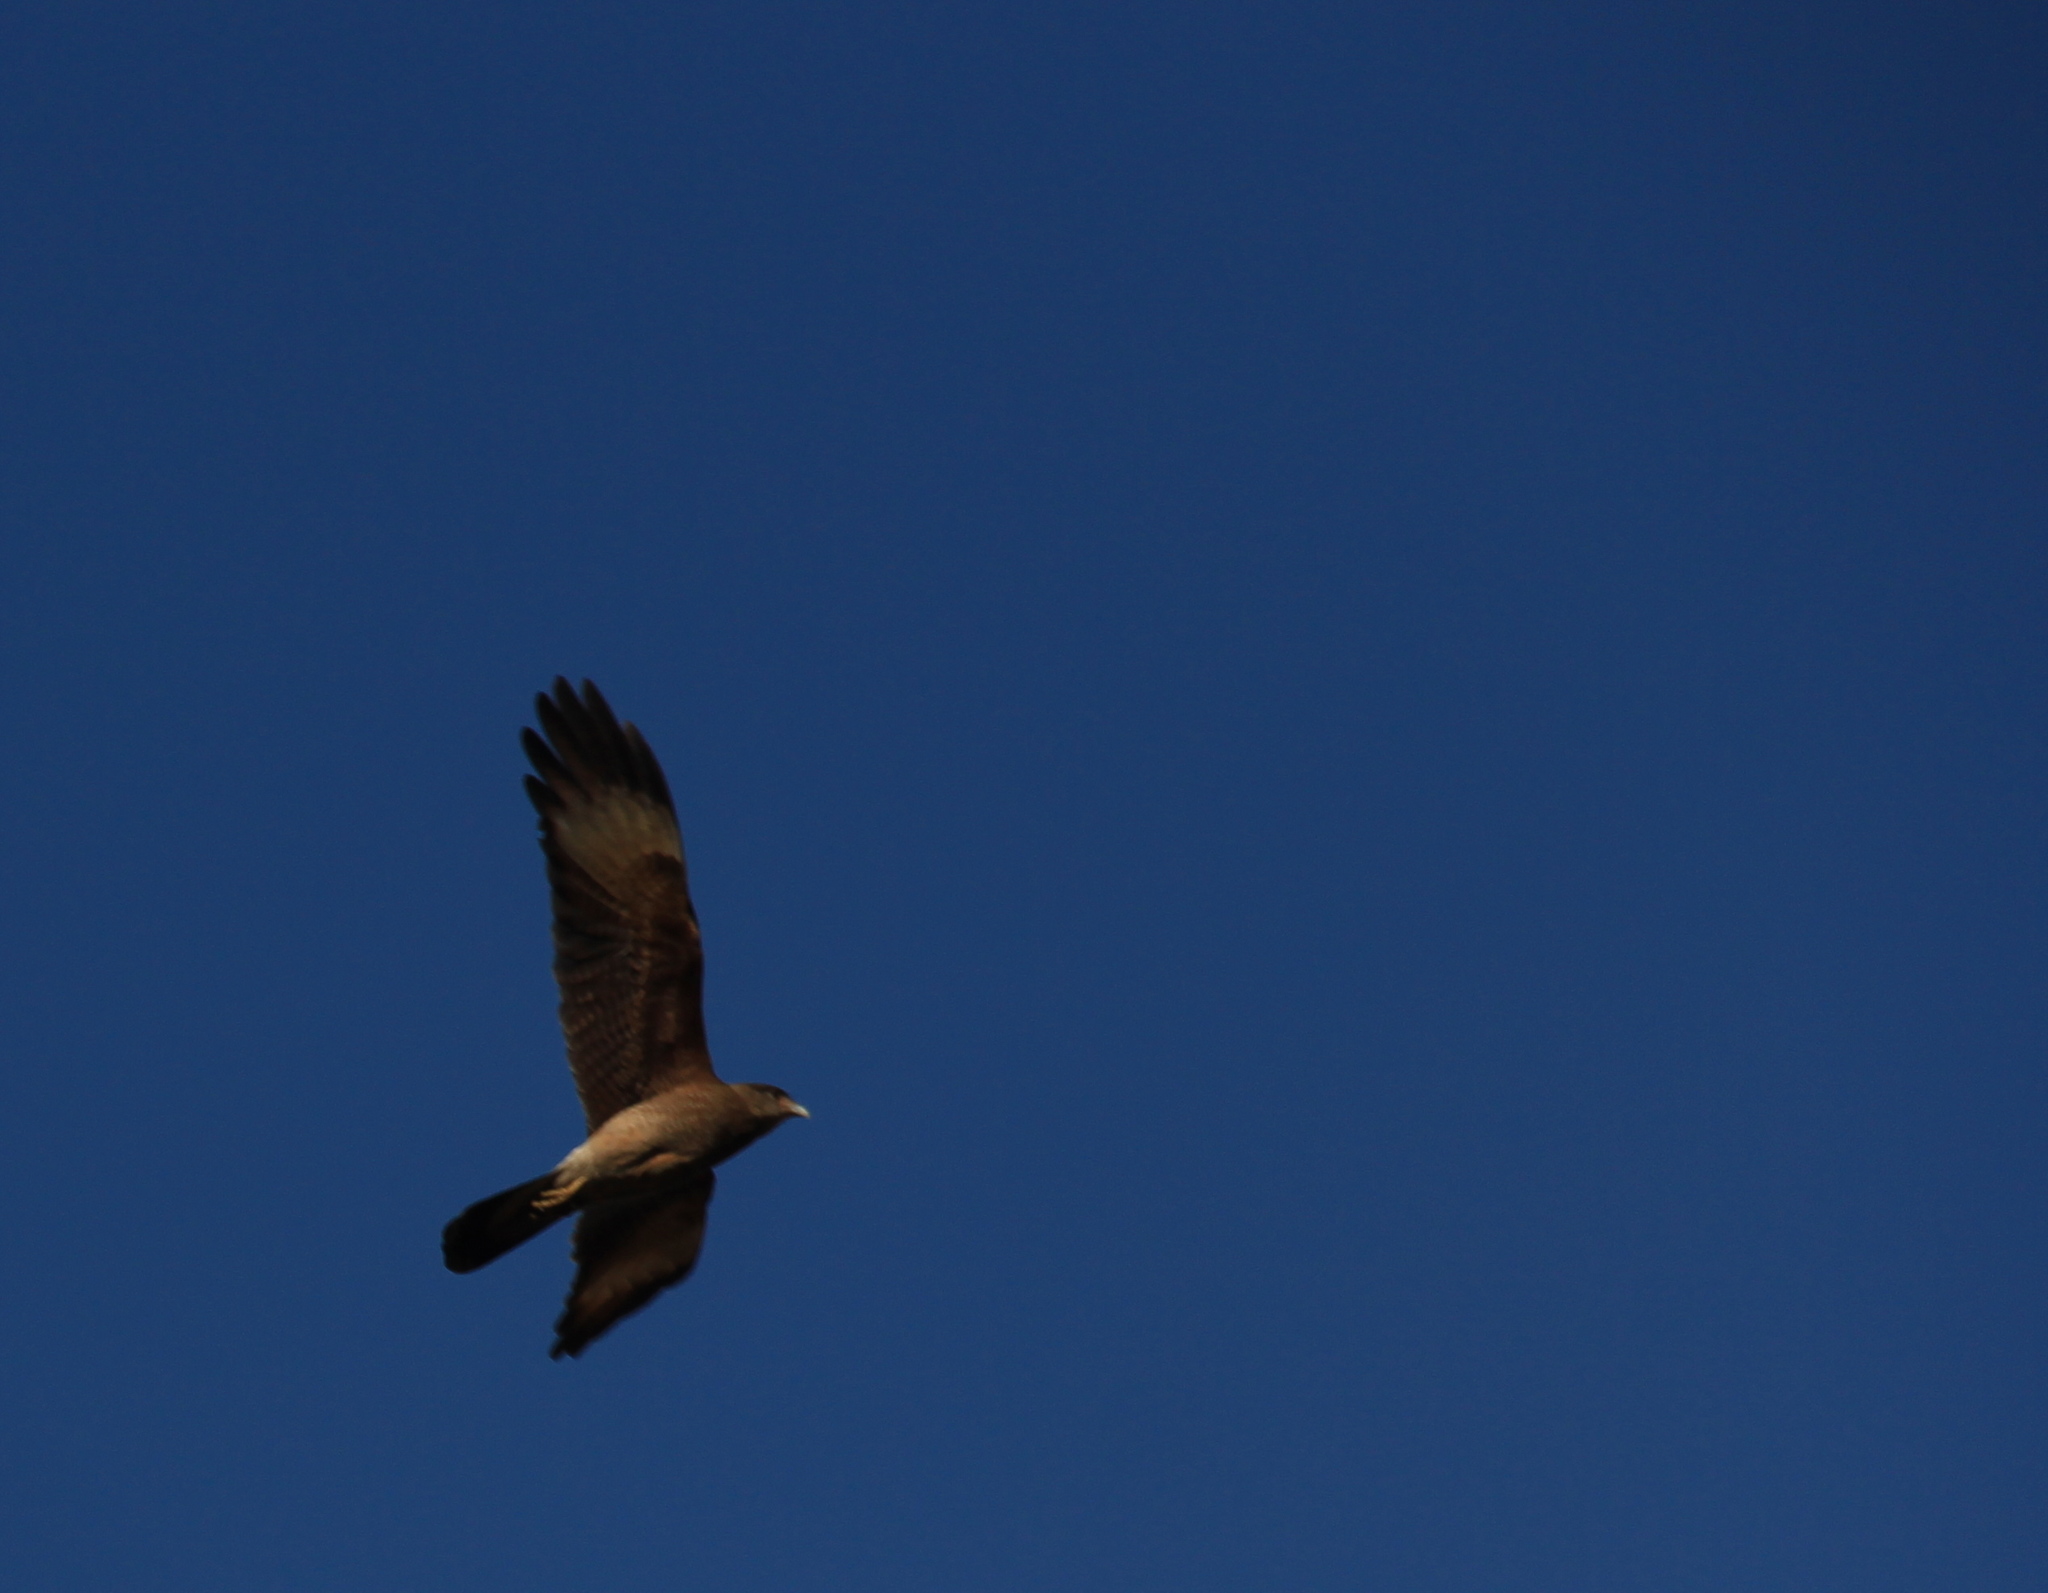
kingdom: Animalia
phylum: Chordata
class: Aves
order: Falconiformes
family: Falconidae
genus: Daptrius
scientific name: Daptrius
